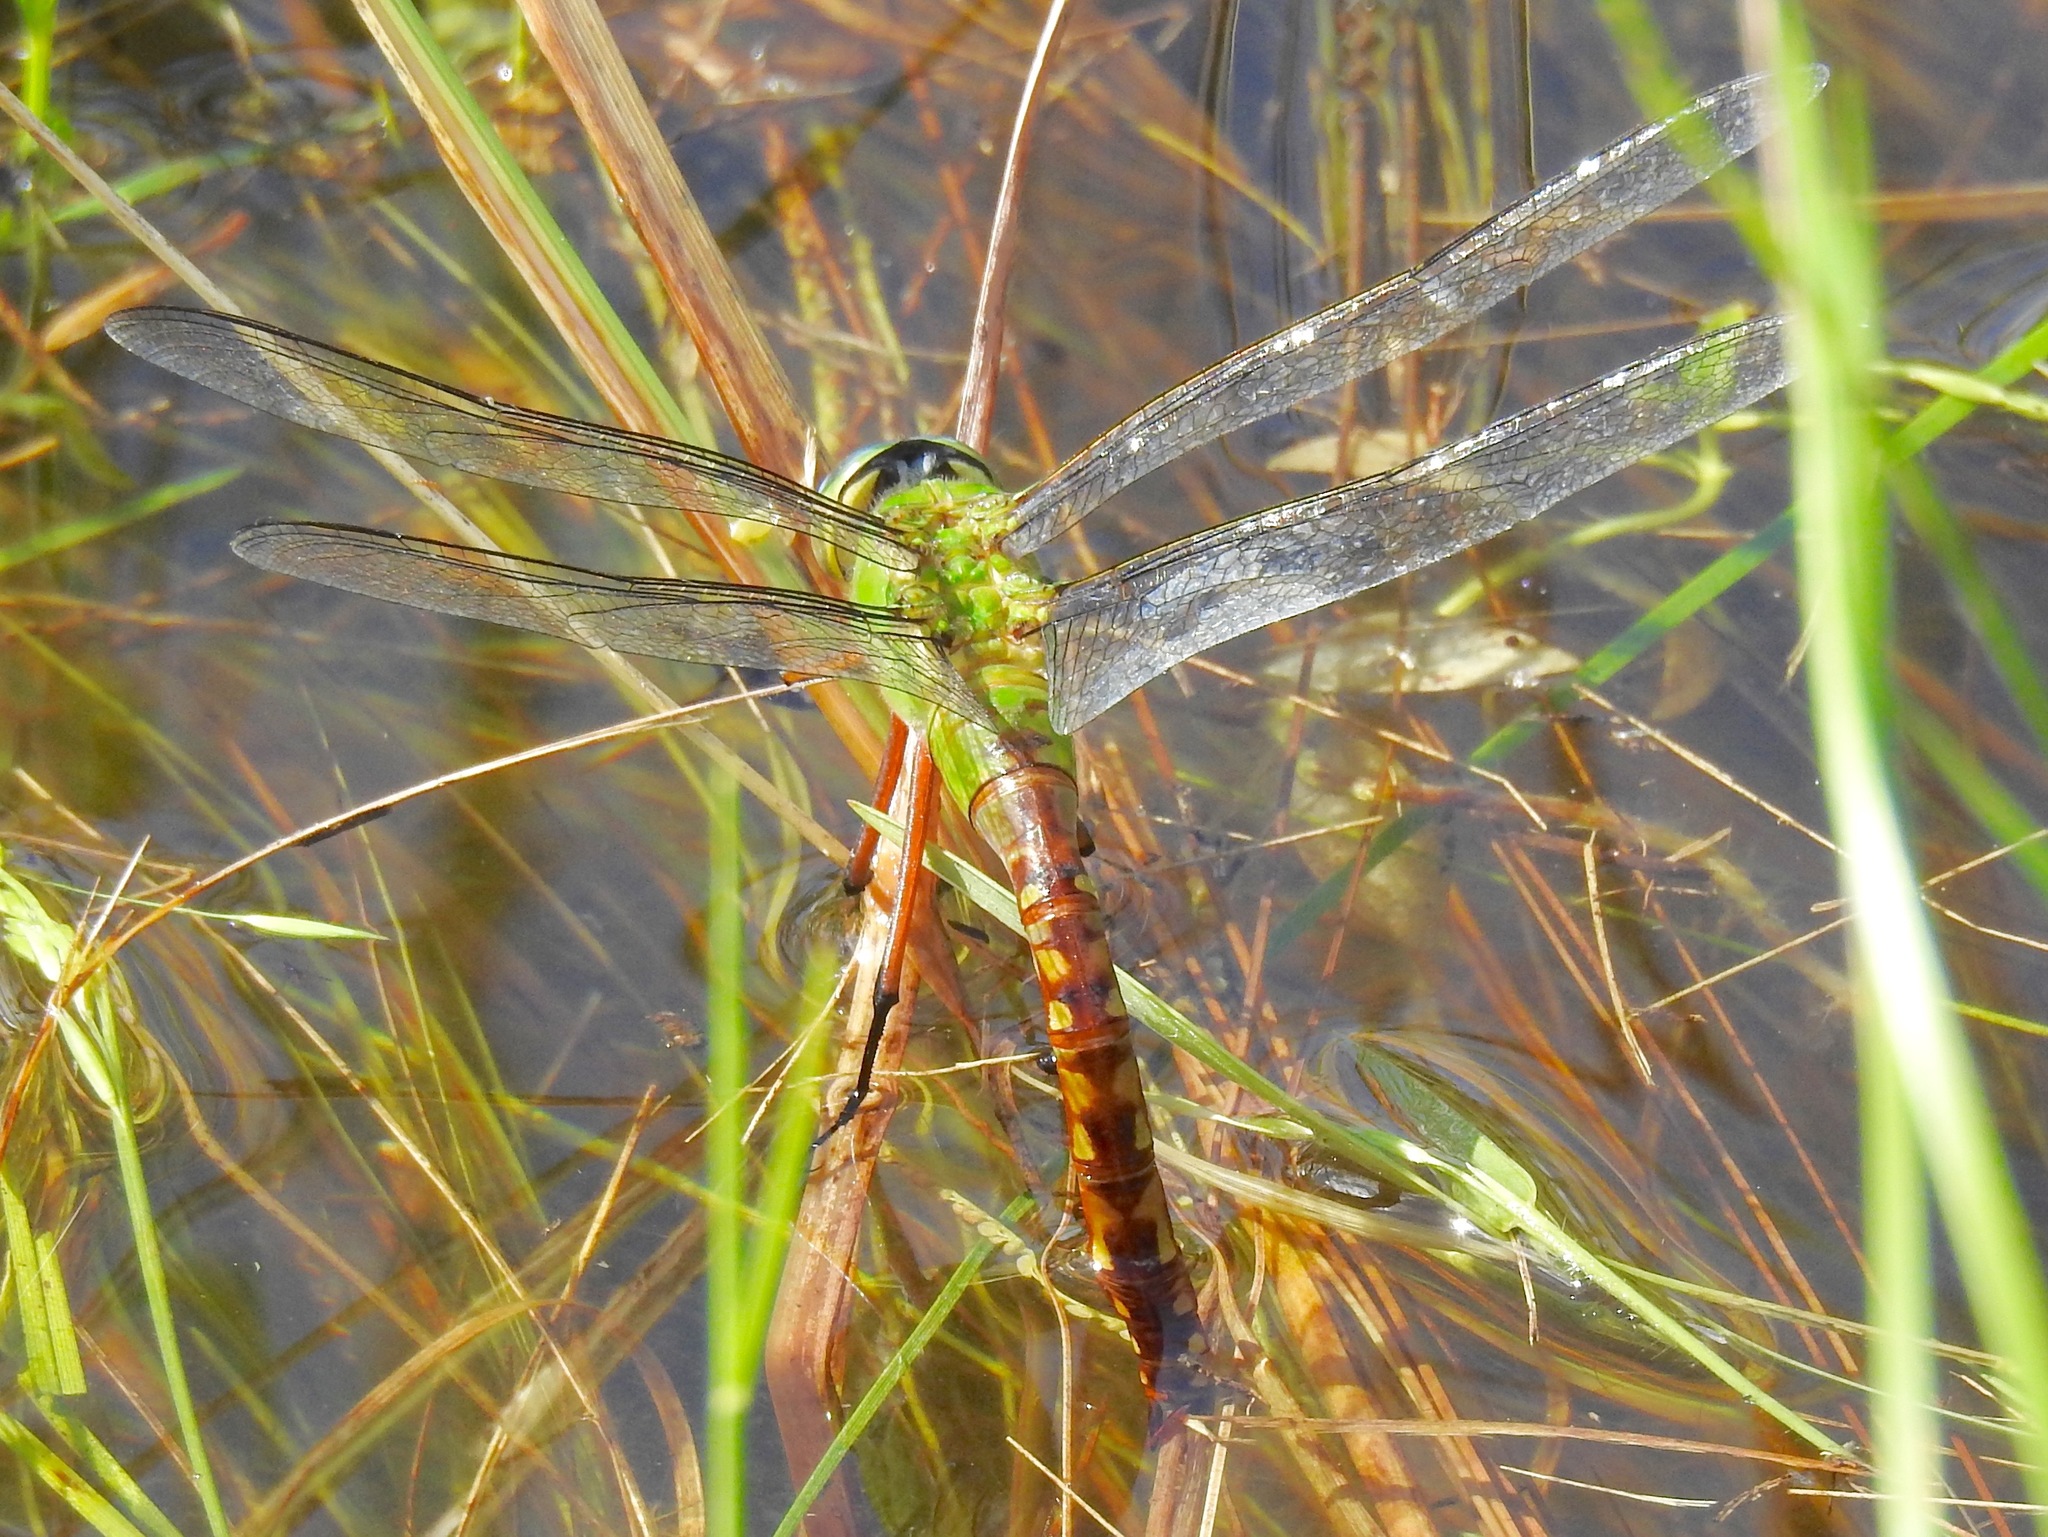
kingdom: Animalia
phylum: Arthropoda
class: Insecta
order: Odonata
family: Aeshnidae
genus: Anax
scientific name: Anax longipes
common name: Comet darner
